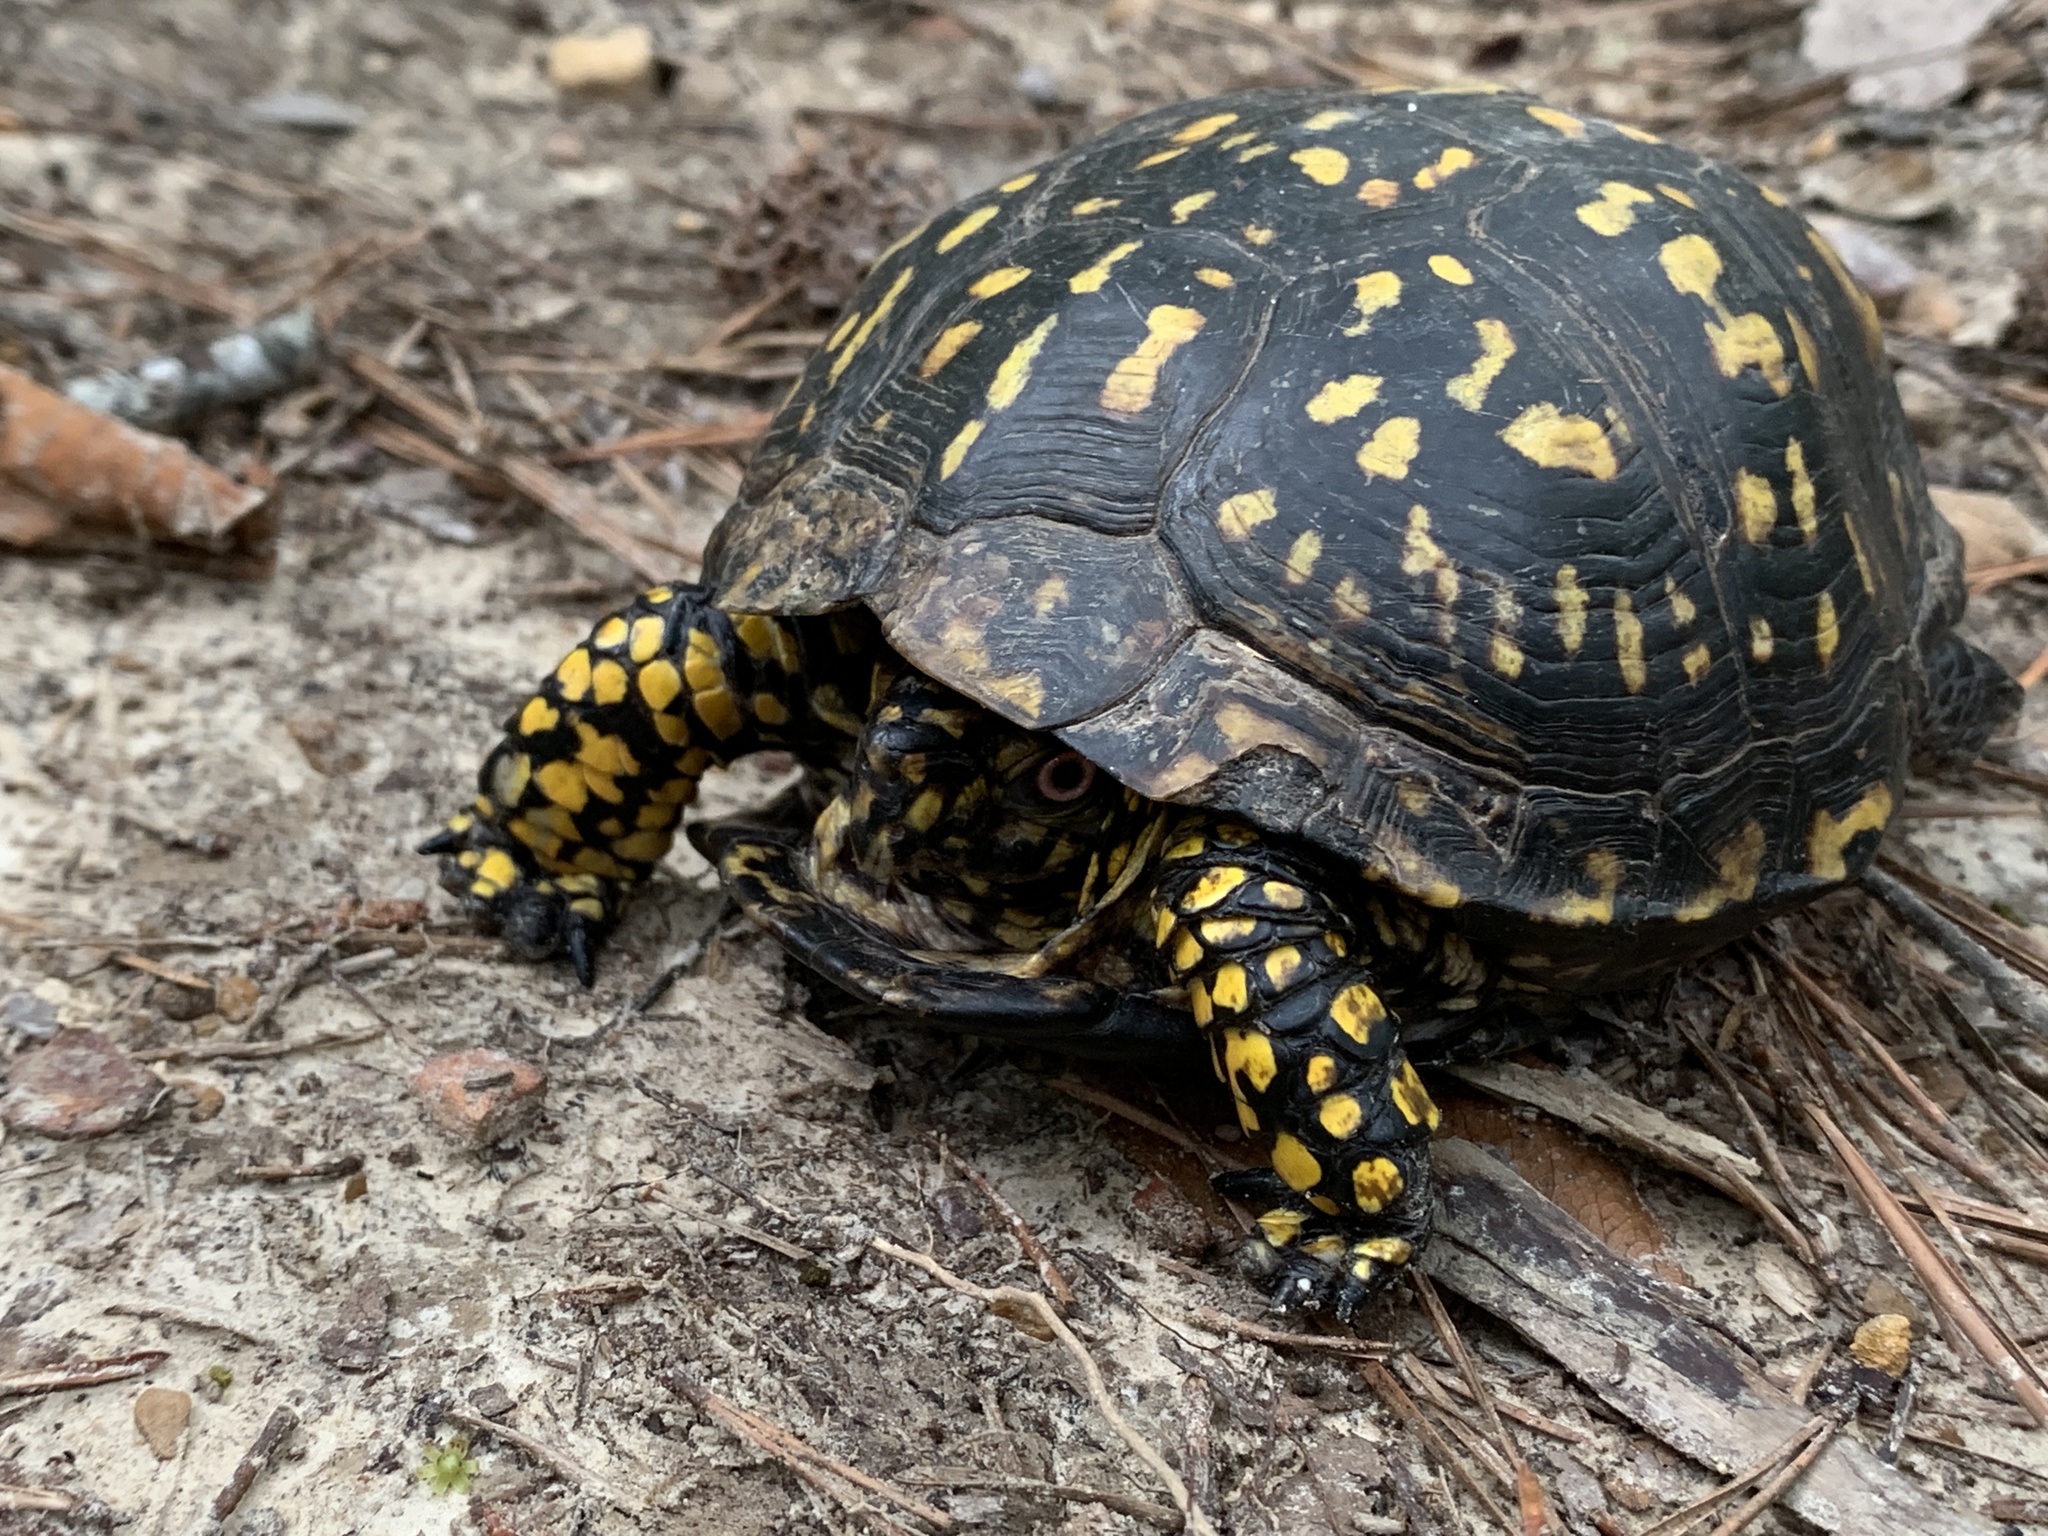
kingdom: Animalia
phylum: Chordata
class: Testudines
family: Emydidae
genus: Terrapene
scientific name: Terrapene carolina
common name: Common box turtle
